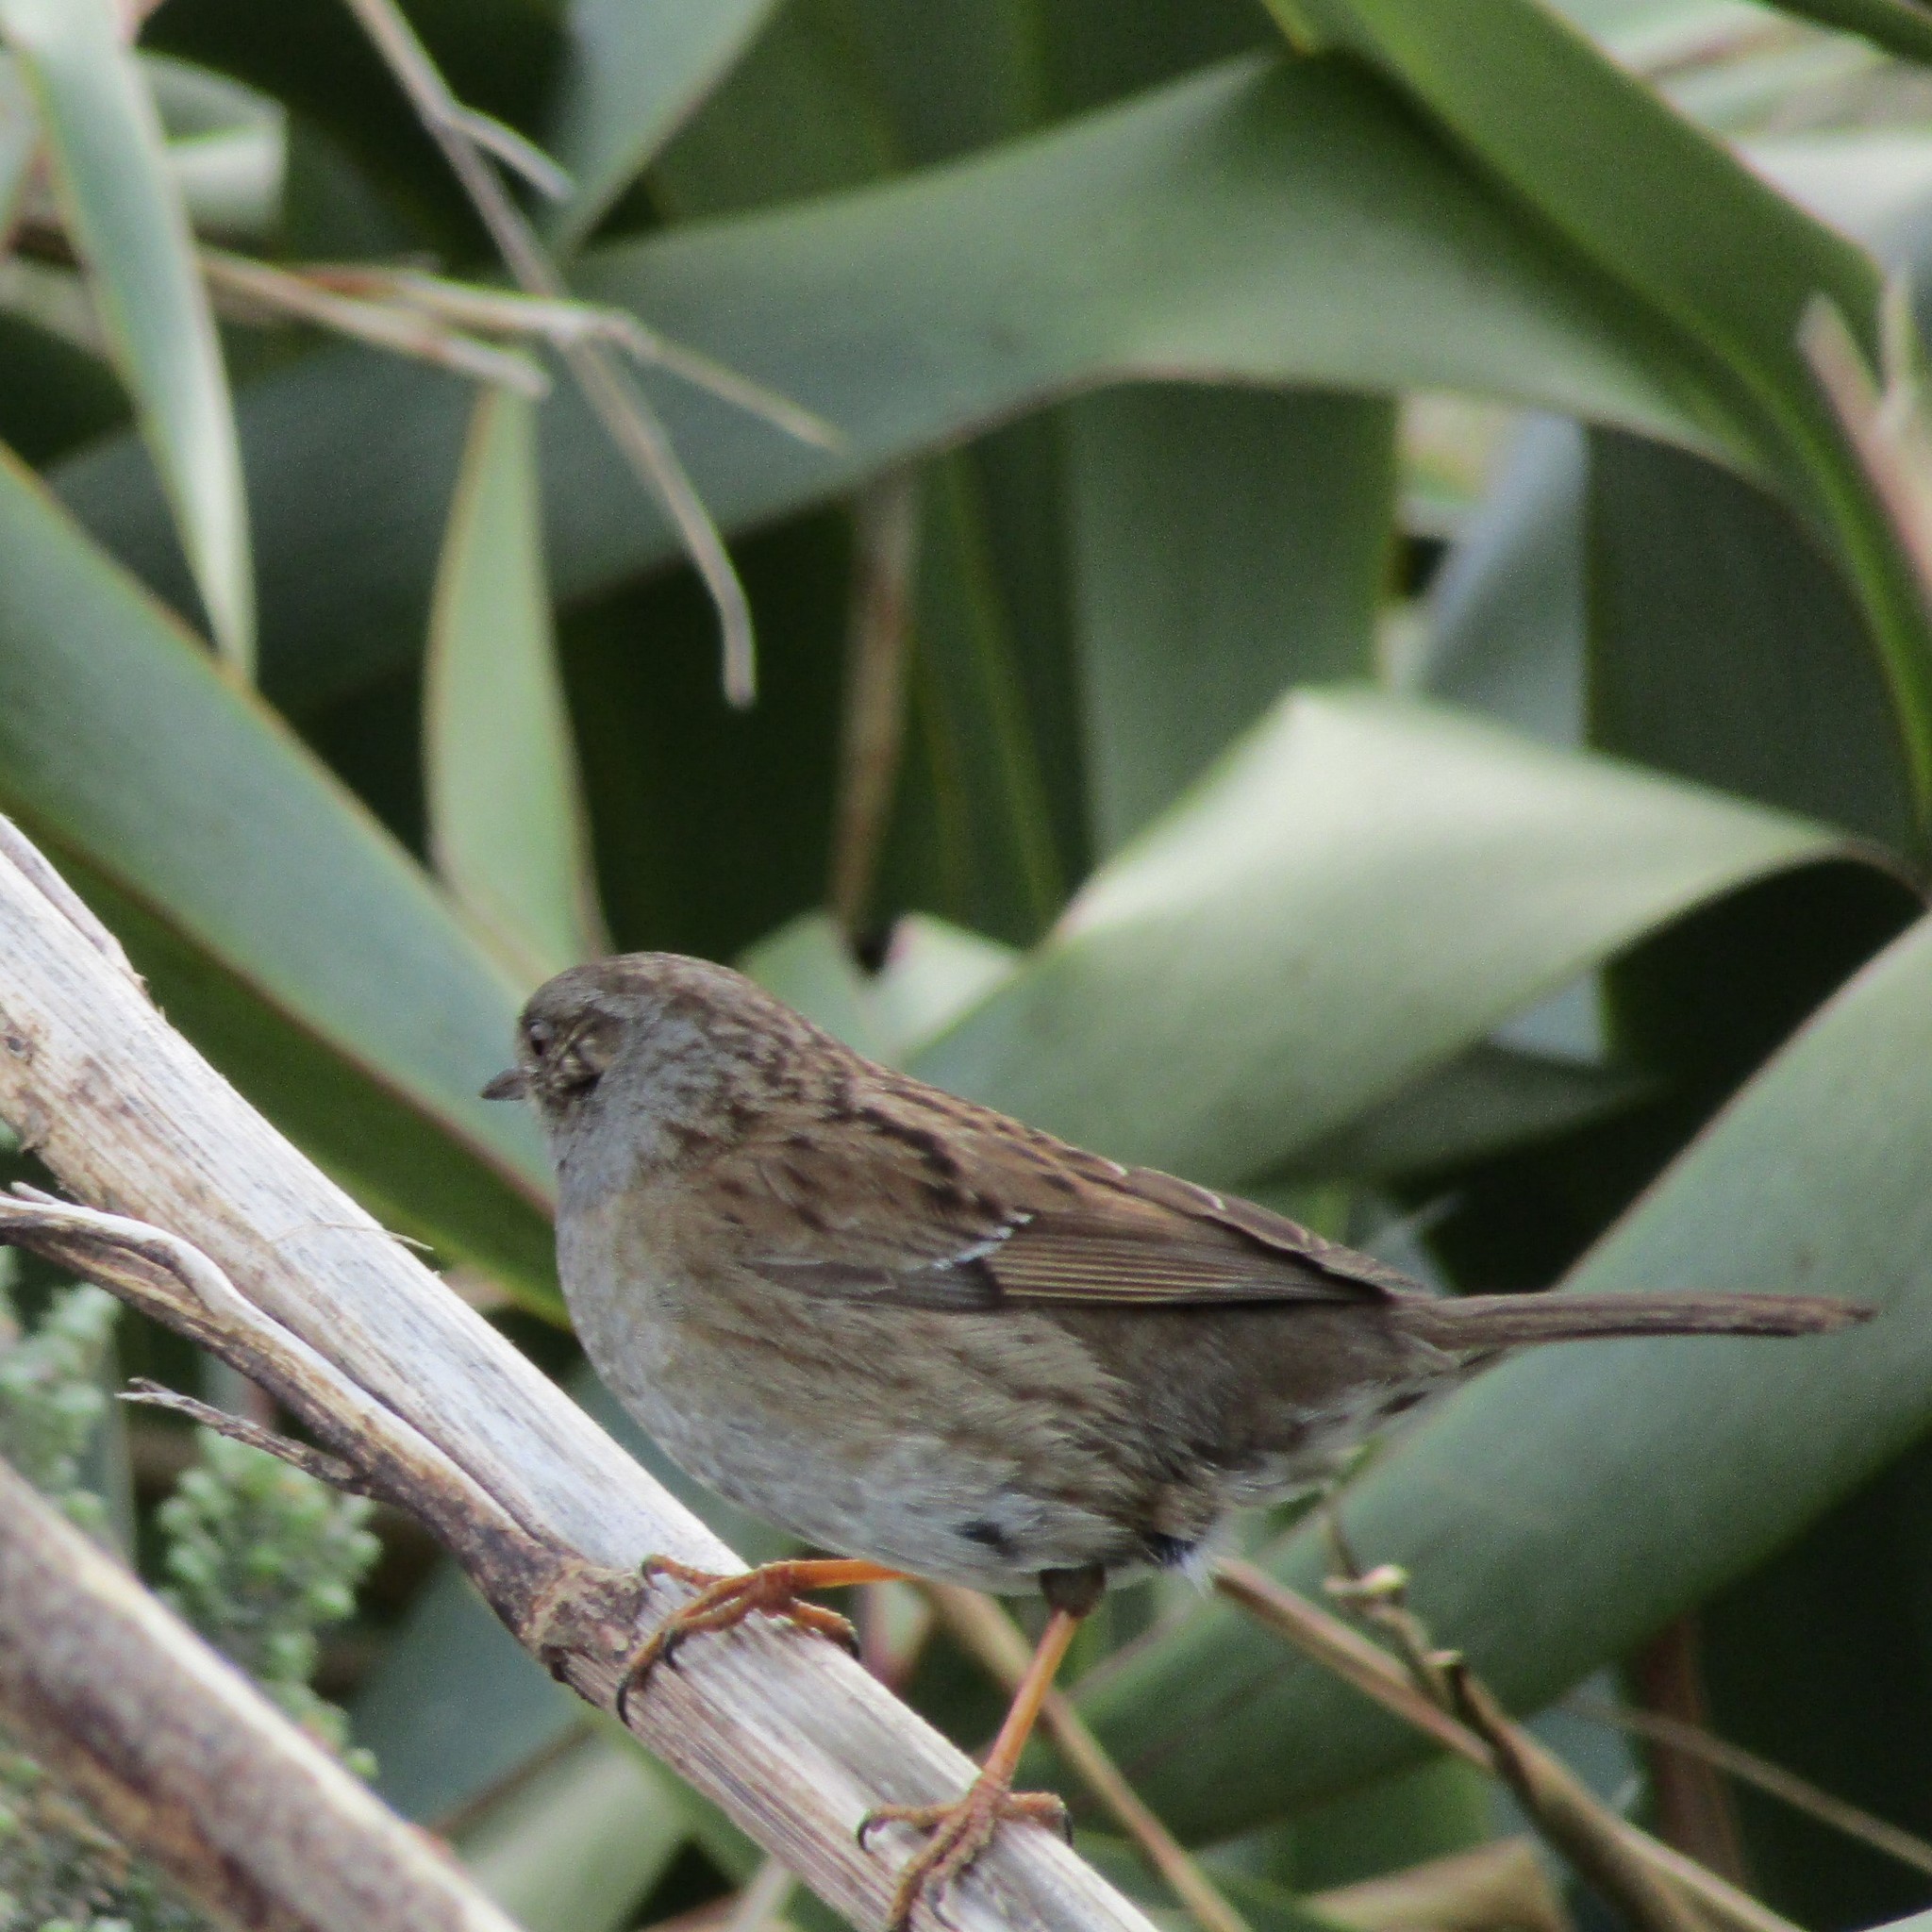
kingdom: Animalia
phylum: Chordata
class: Aves
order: Passeriformes
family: Prunellidae
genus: Prunella
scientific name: Prunella modularis
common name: Dunnock
